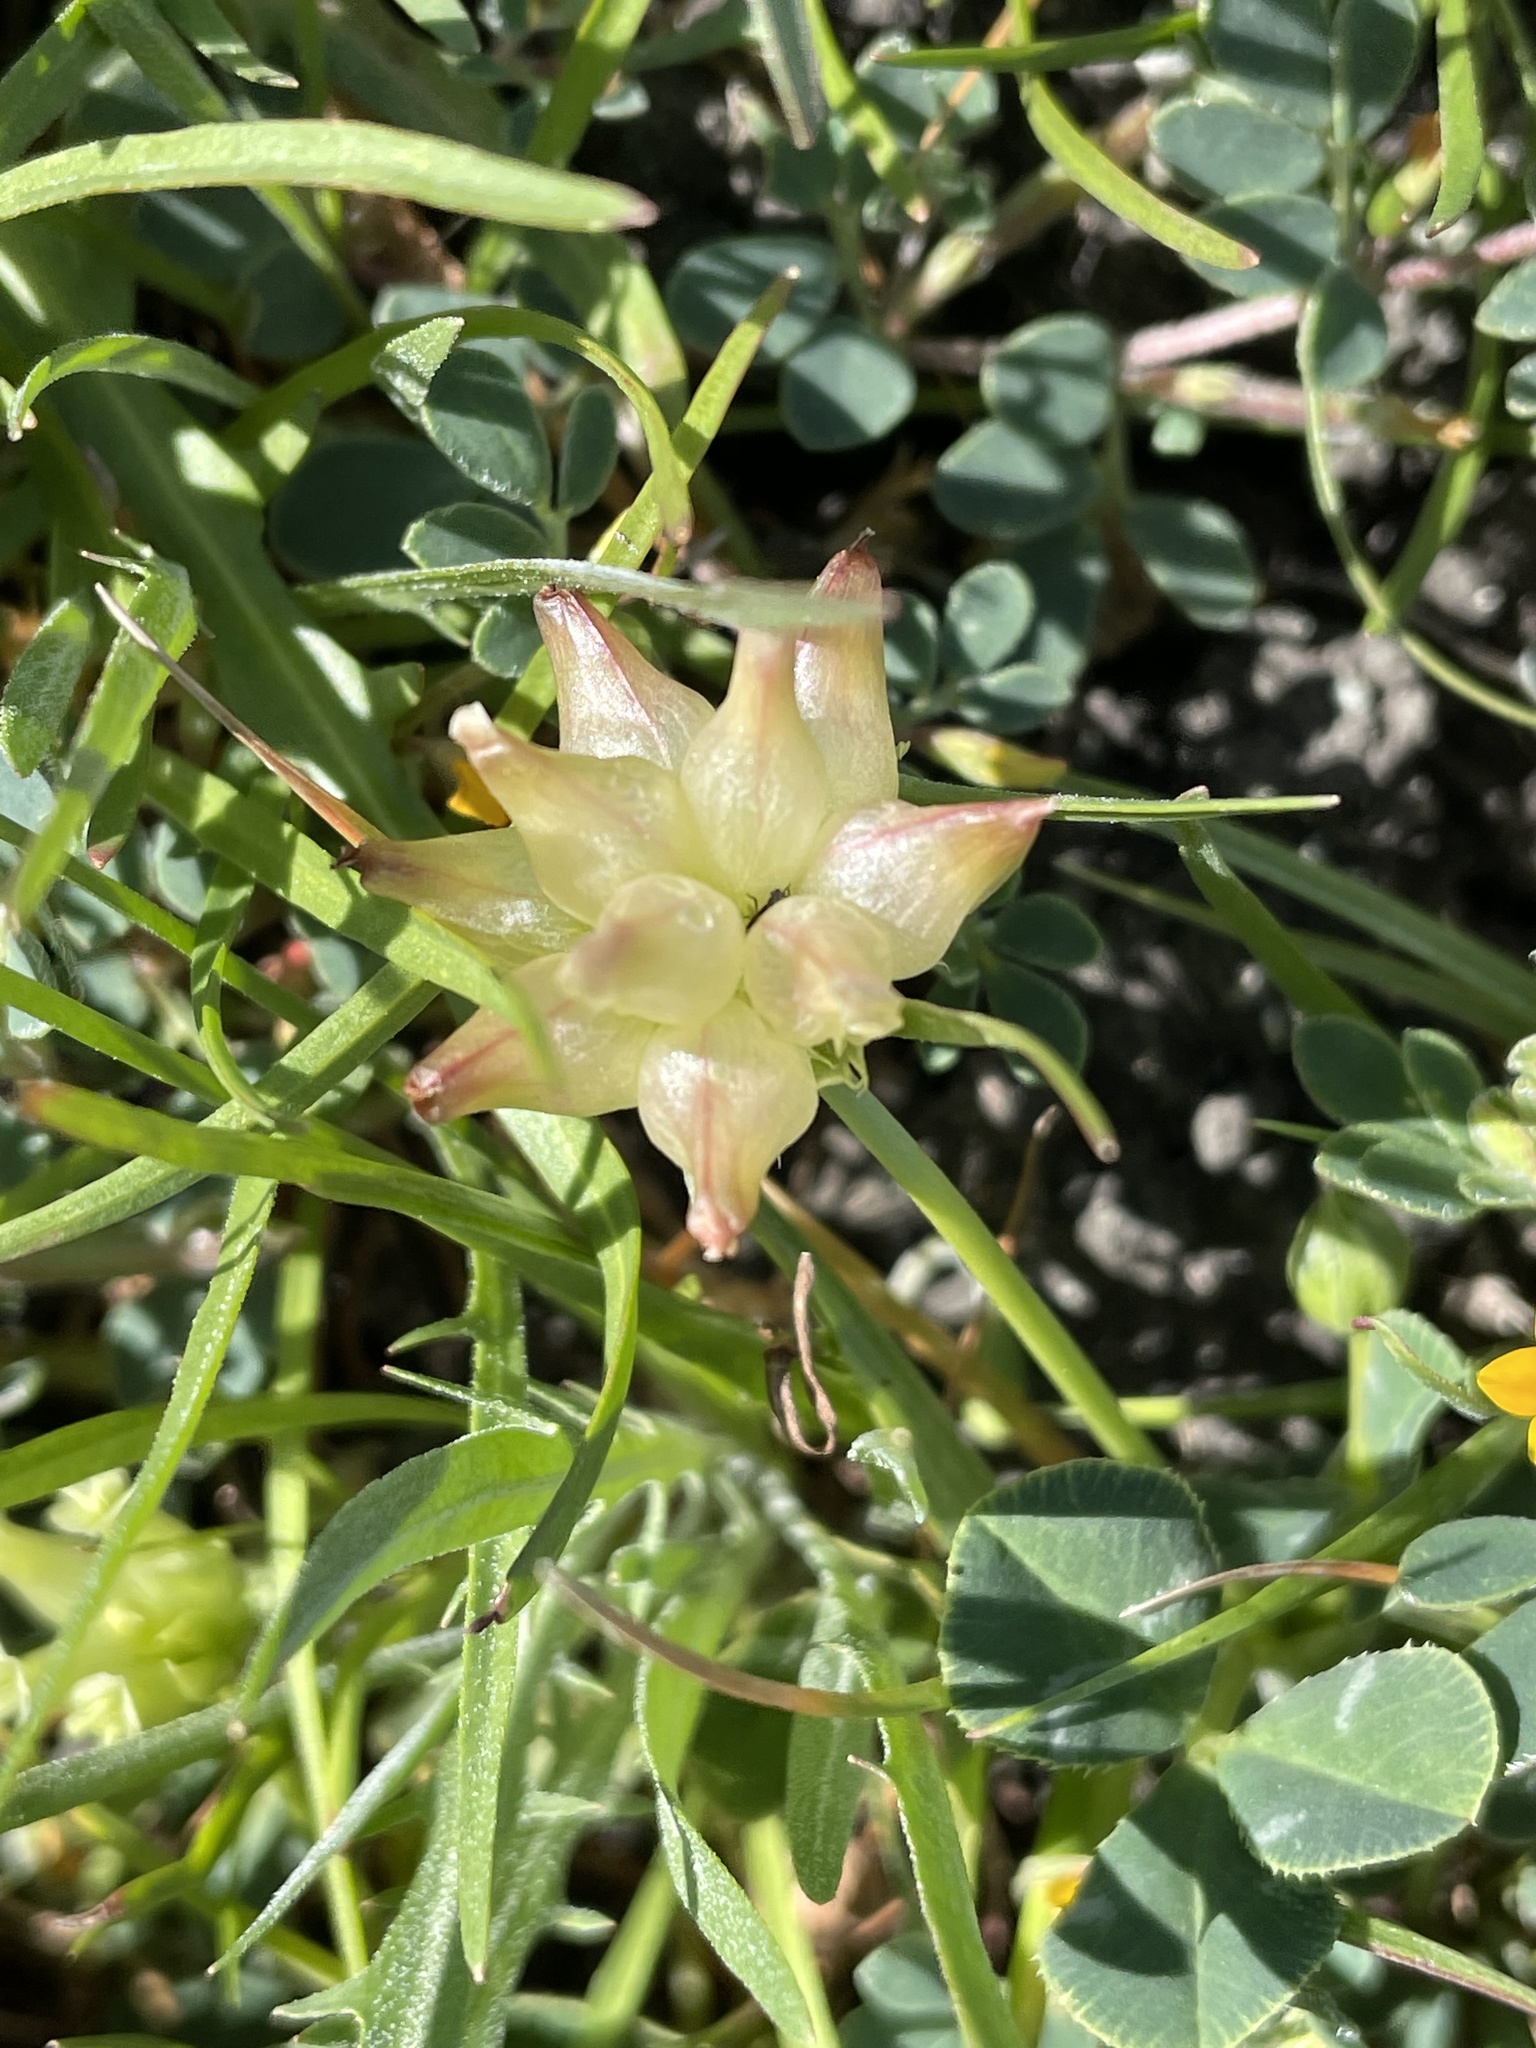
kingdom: Plantae
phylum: Tracheophyta
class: Magnoliopsida
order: Fabales
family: Fabaceae
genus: Trifolium
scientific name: Trifolium fucatum
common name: Puff clover
